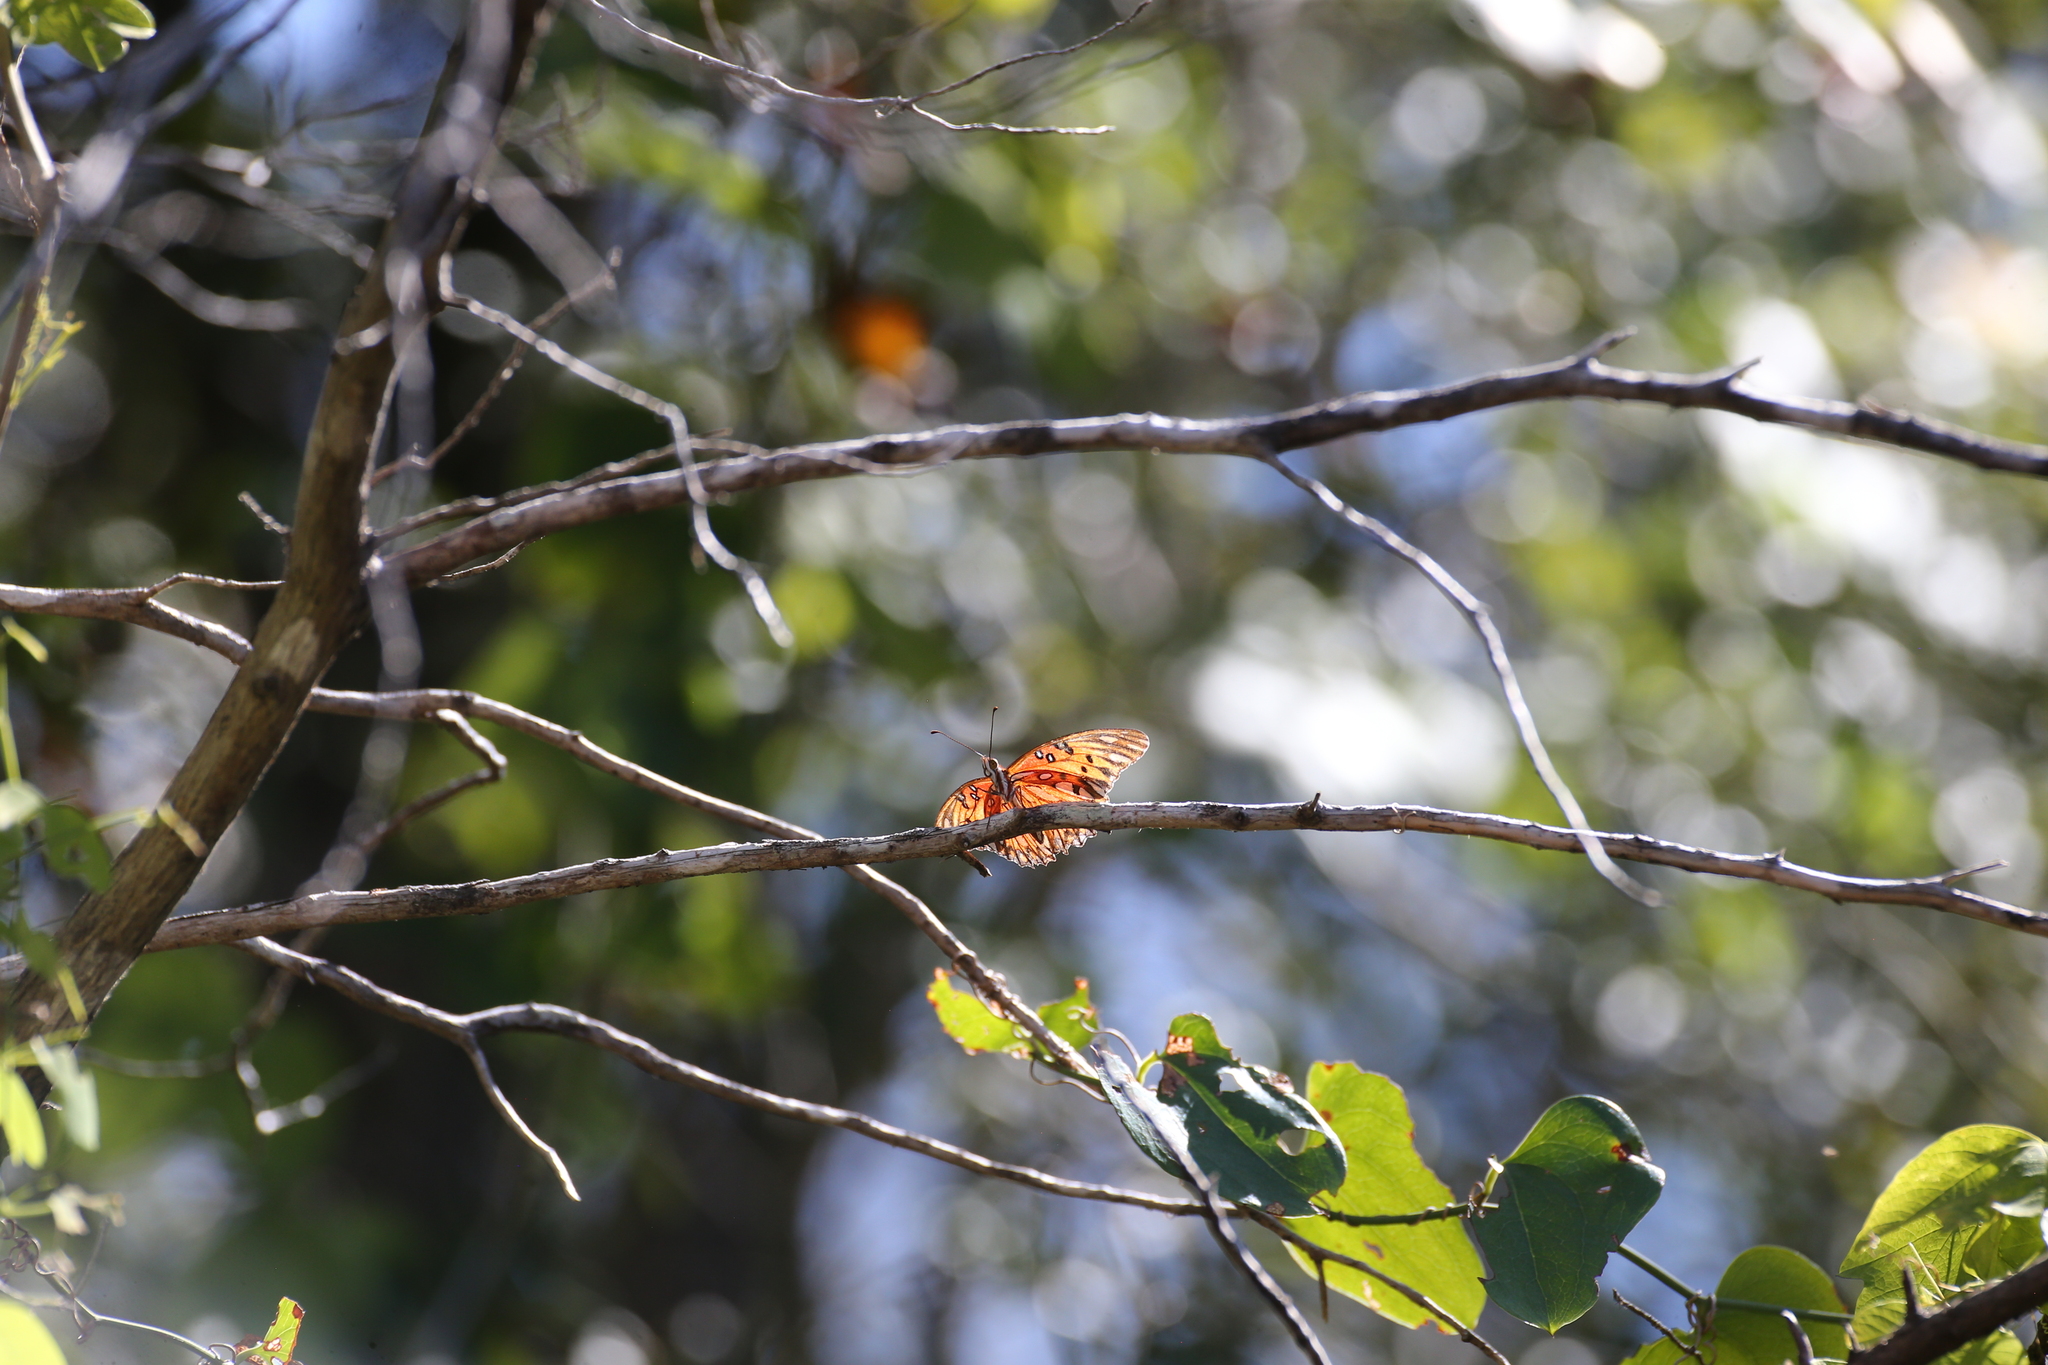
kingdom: Animalia
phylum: Arthropoda
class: Insecta
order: Lepidoptera
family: Nymphalidae
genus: Dione
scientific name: Dione vanillae
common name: Gulf fritillary
